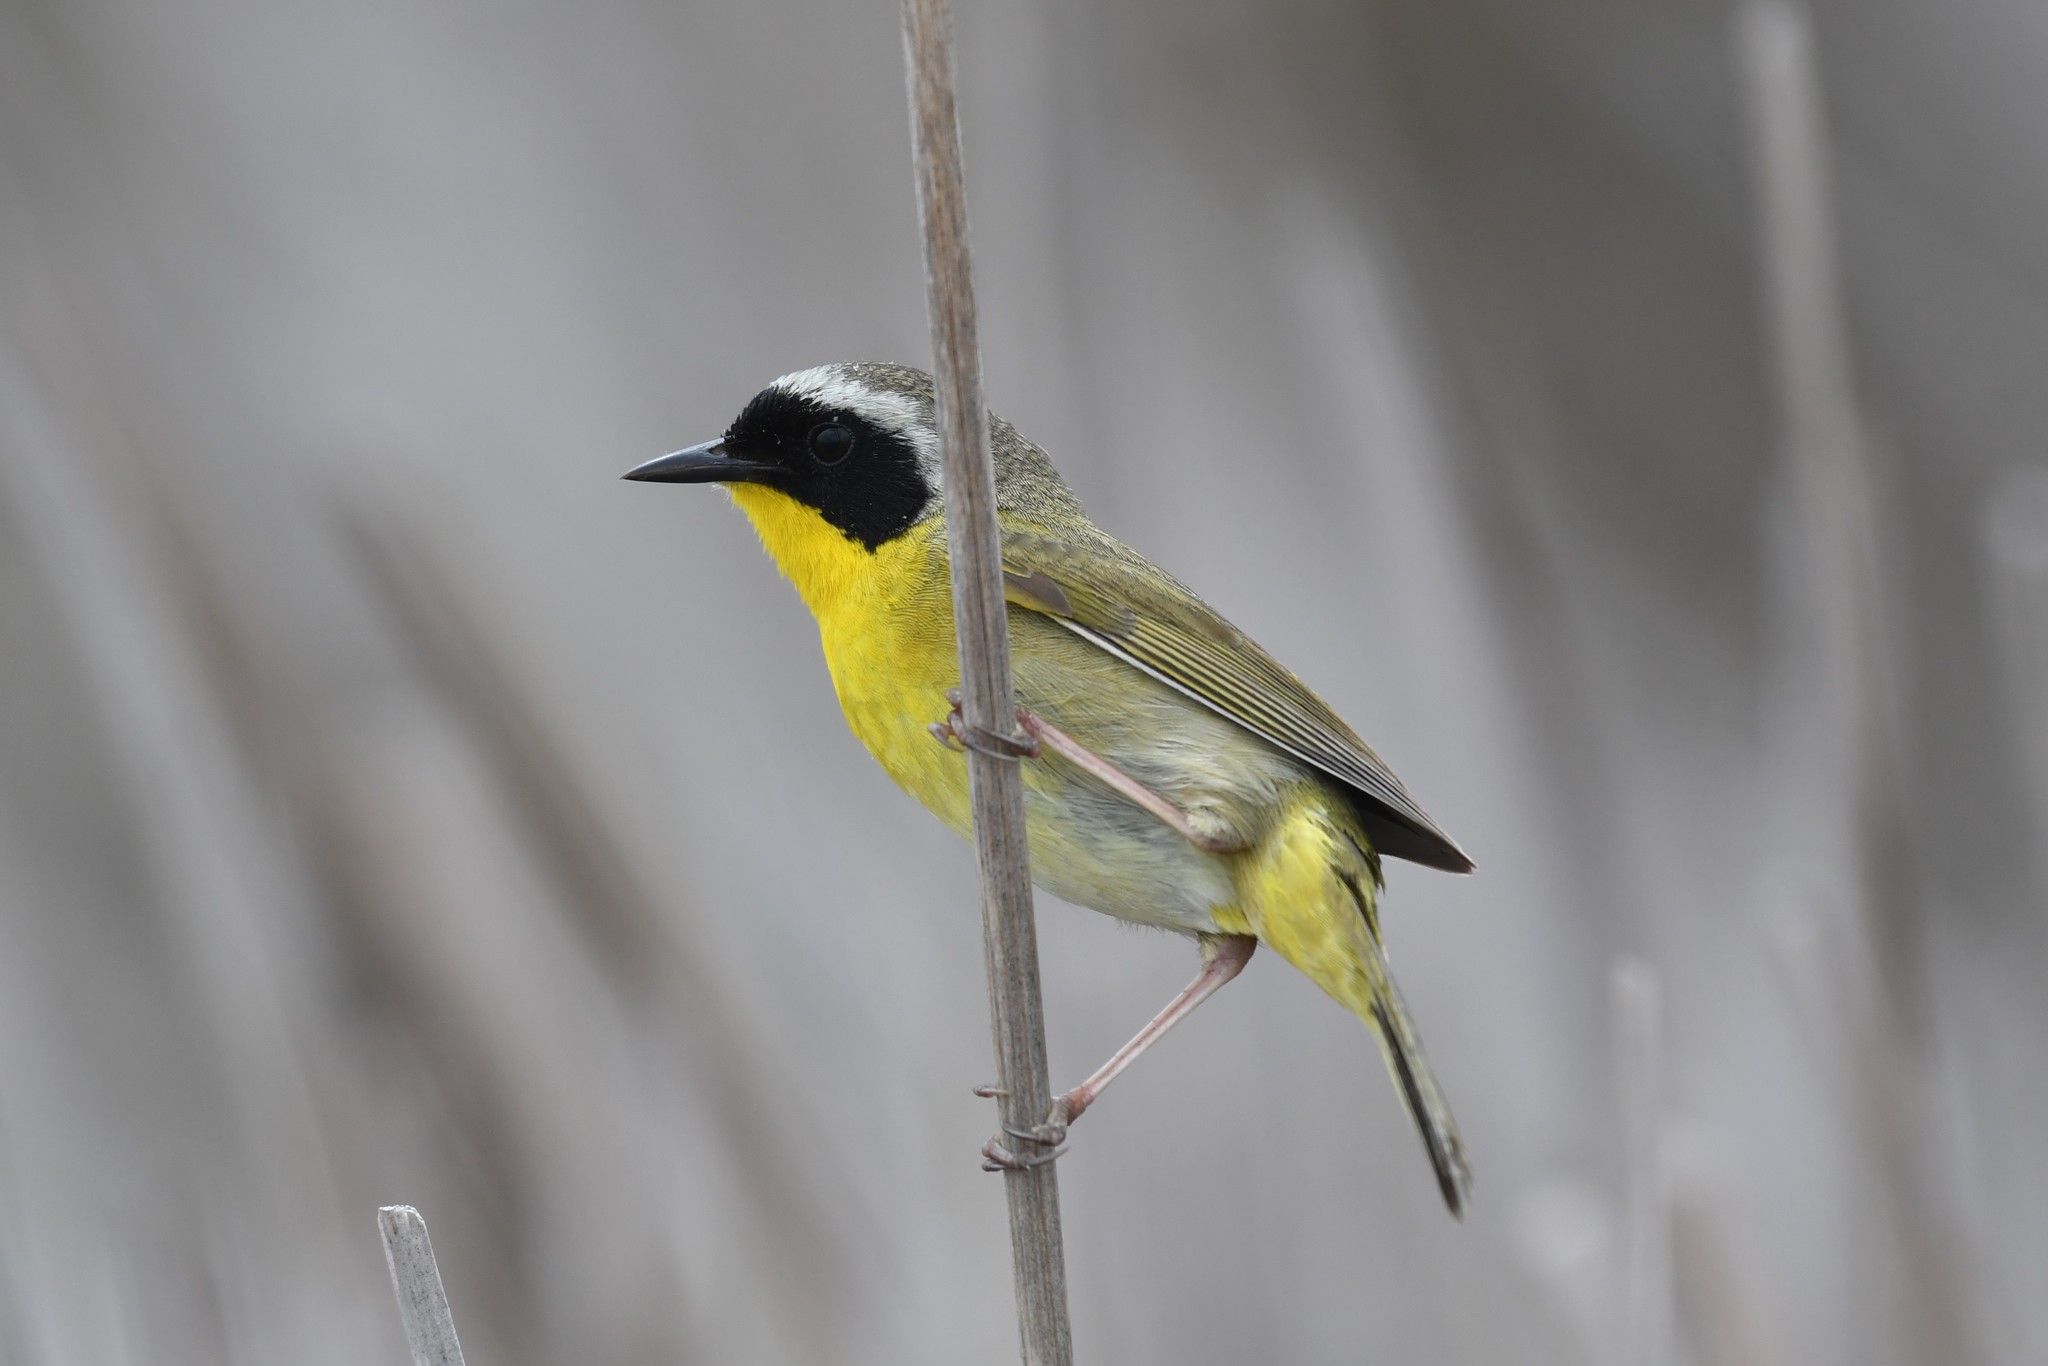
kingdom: Animalia
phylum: Chordata
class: Aves
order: Passeriformes
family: Parulidae
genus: Geothlypis
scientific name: Geothlypis trichas
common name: Common yellowthroat
